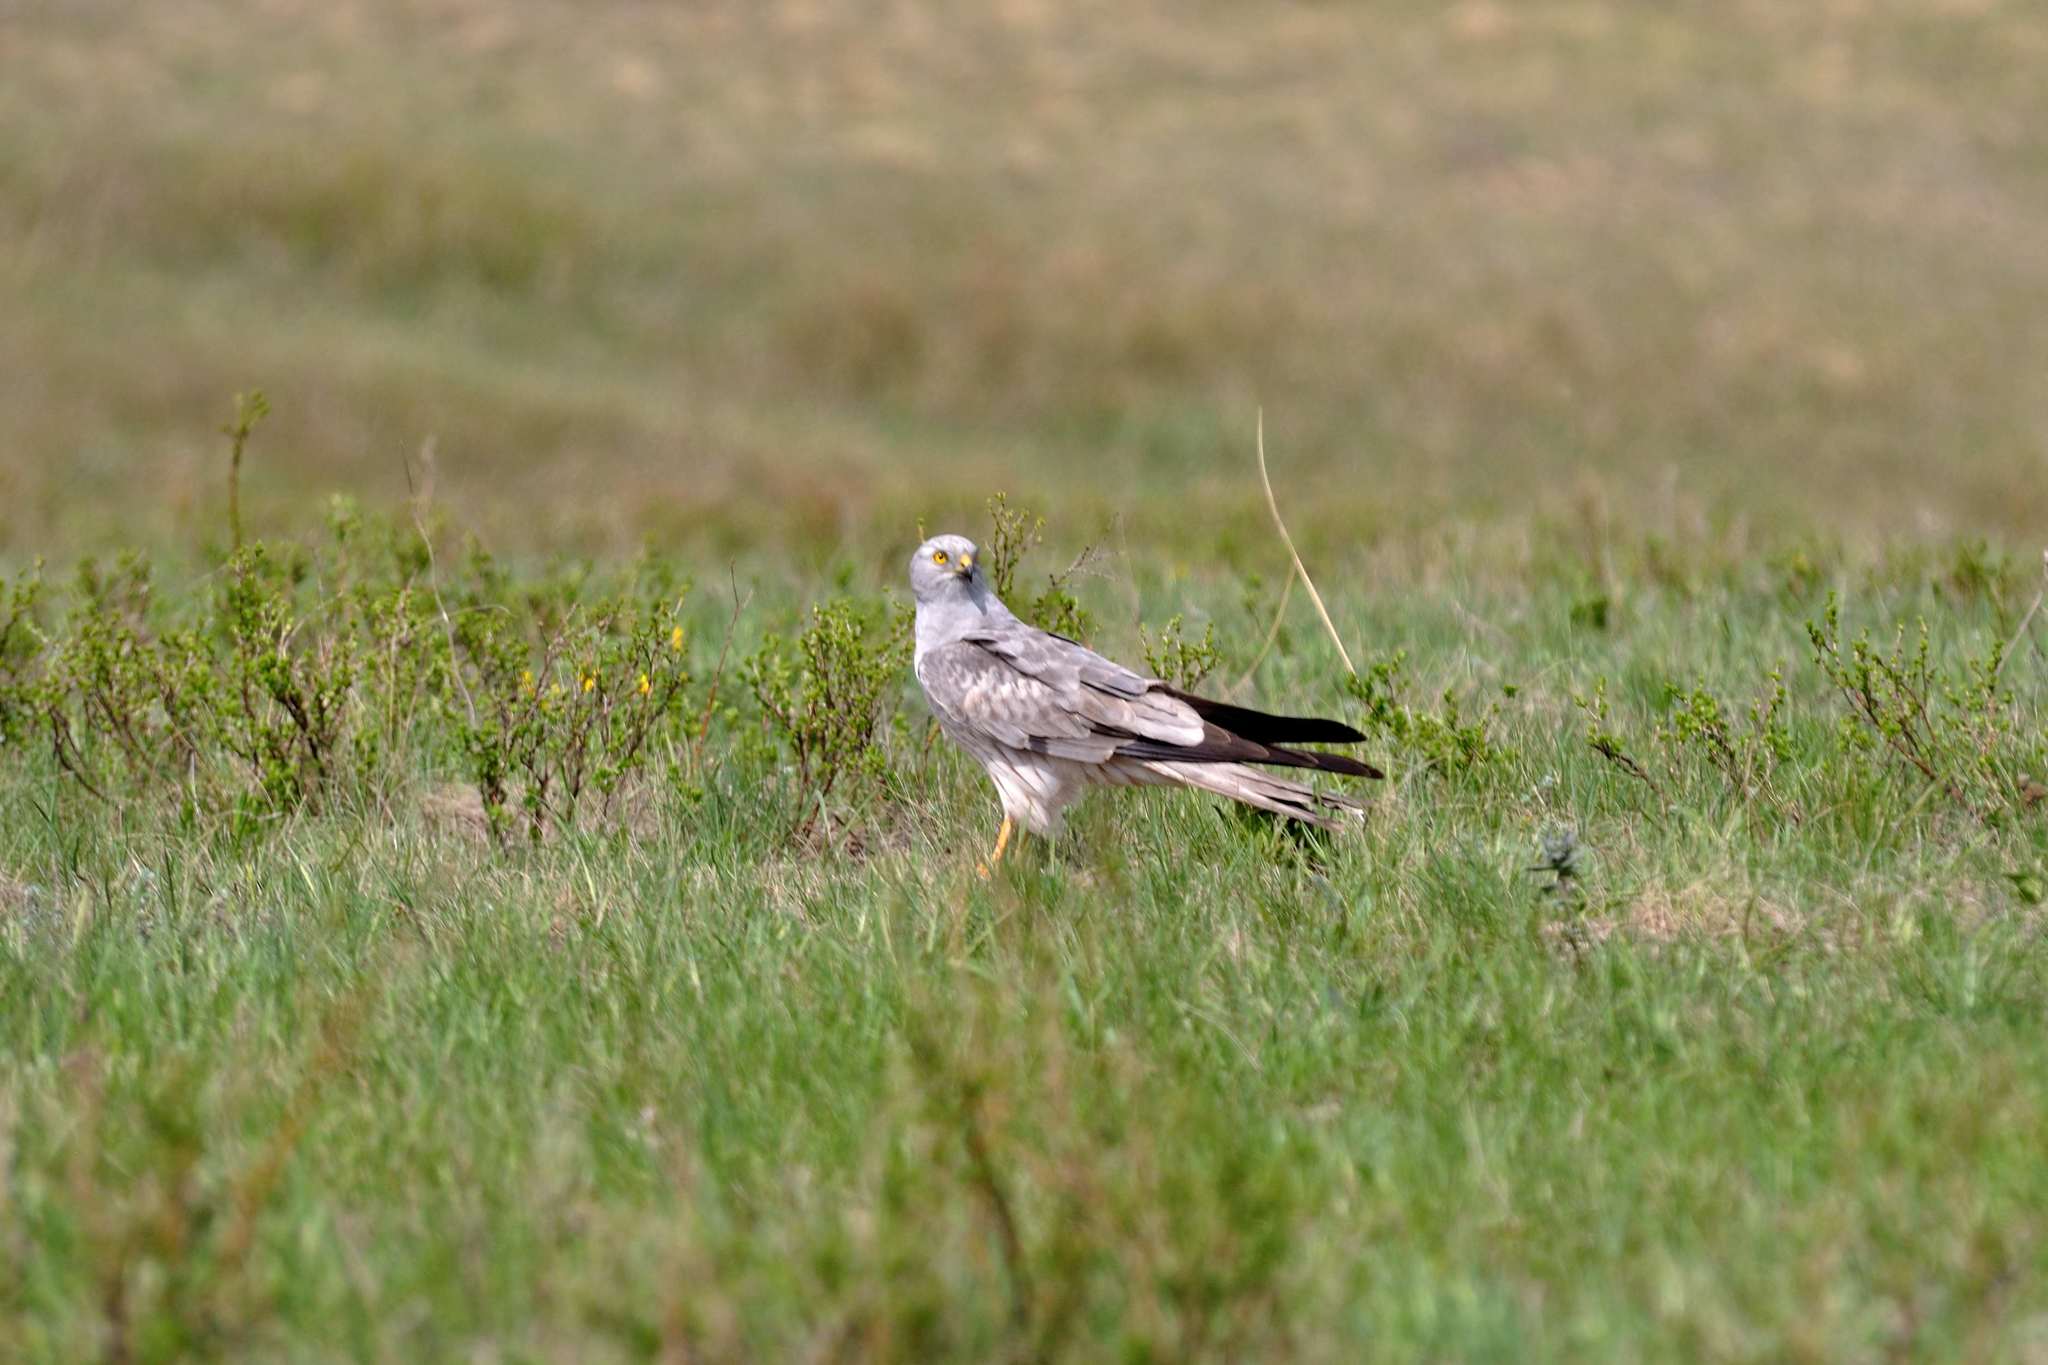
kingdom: Animalia
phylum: Chordata
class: Aves
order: Accipitriformes
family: Accipitridae
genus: Circus
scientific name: Circus pygargus
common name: Montagu's harrier
